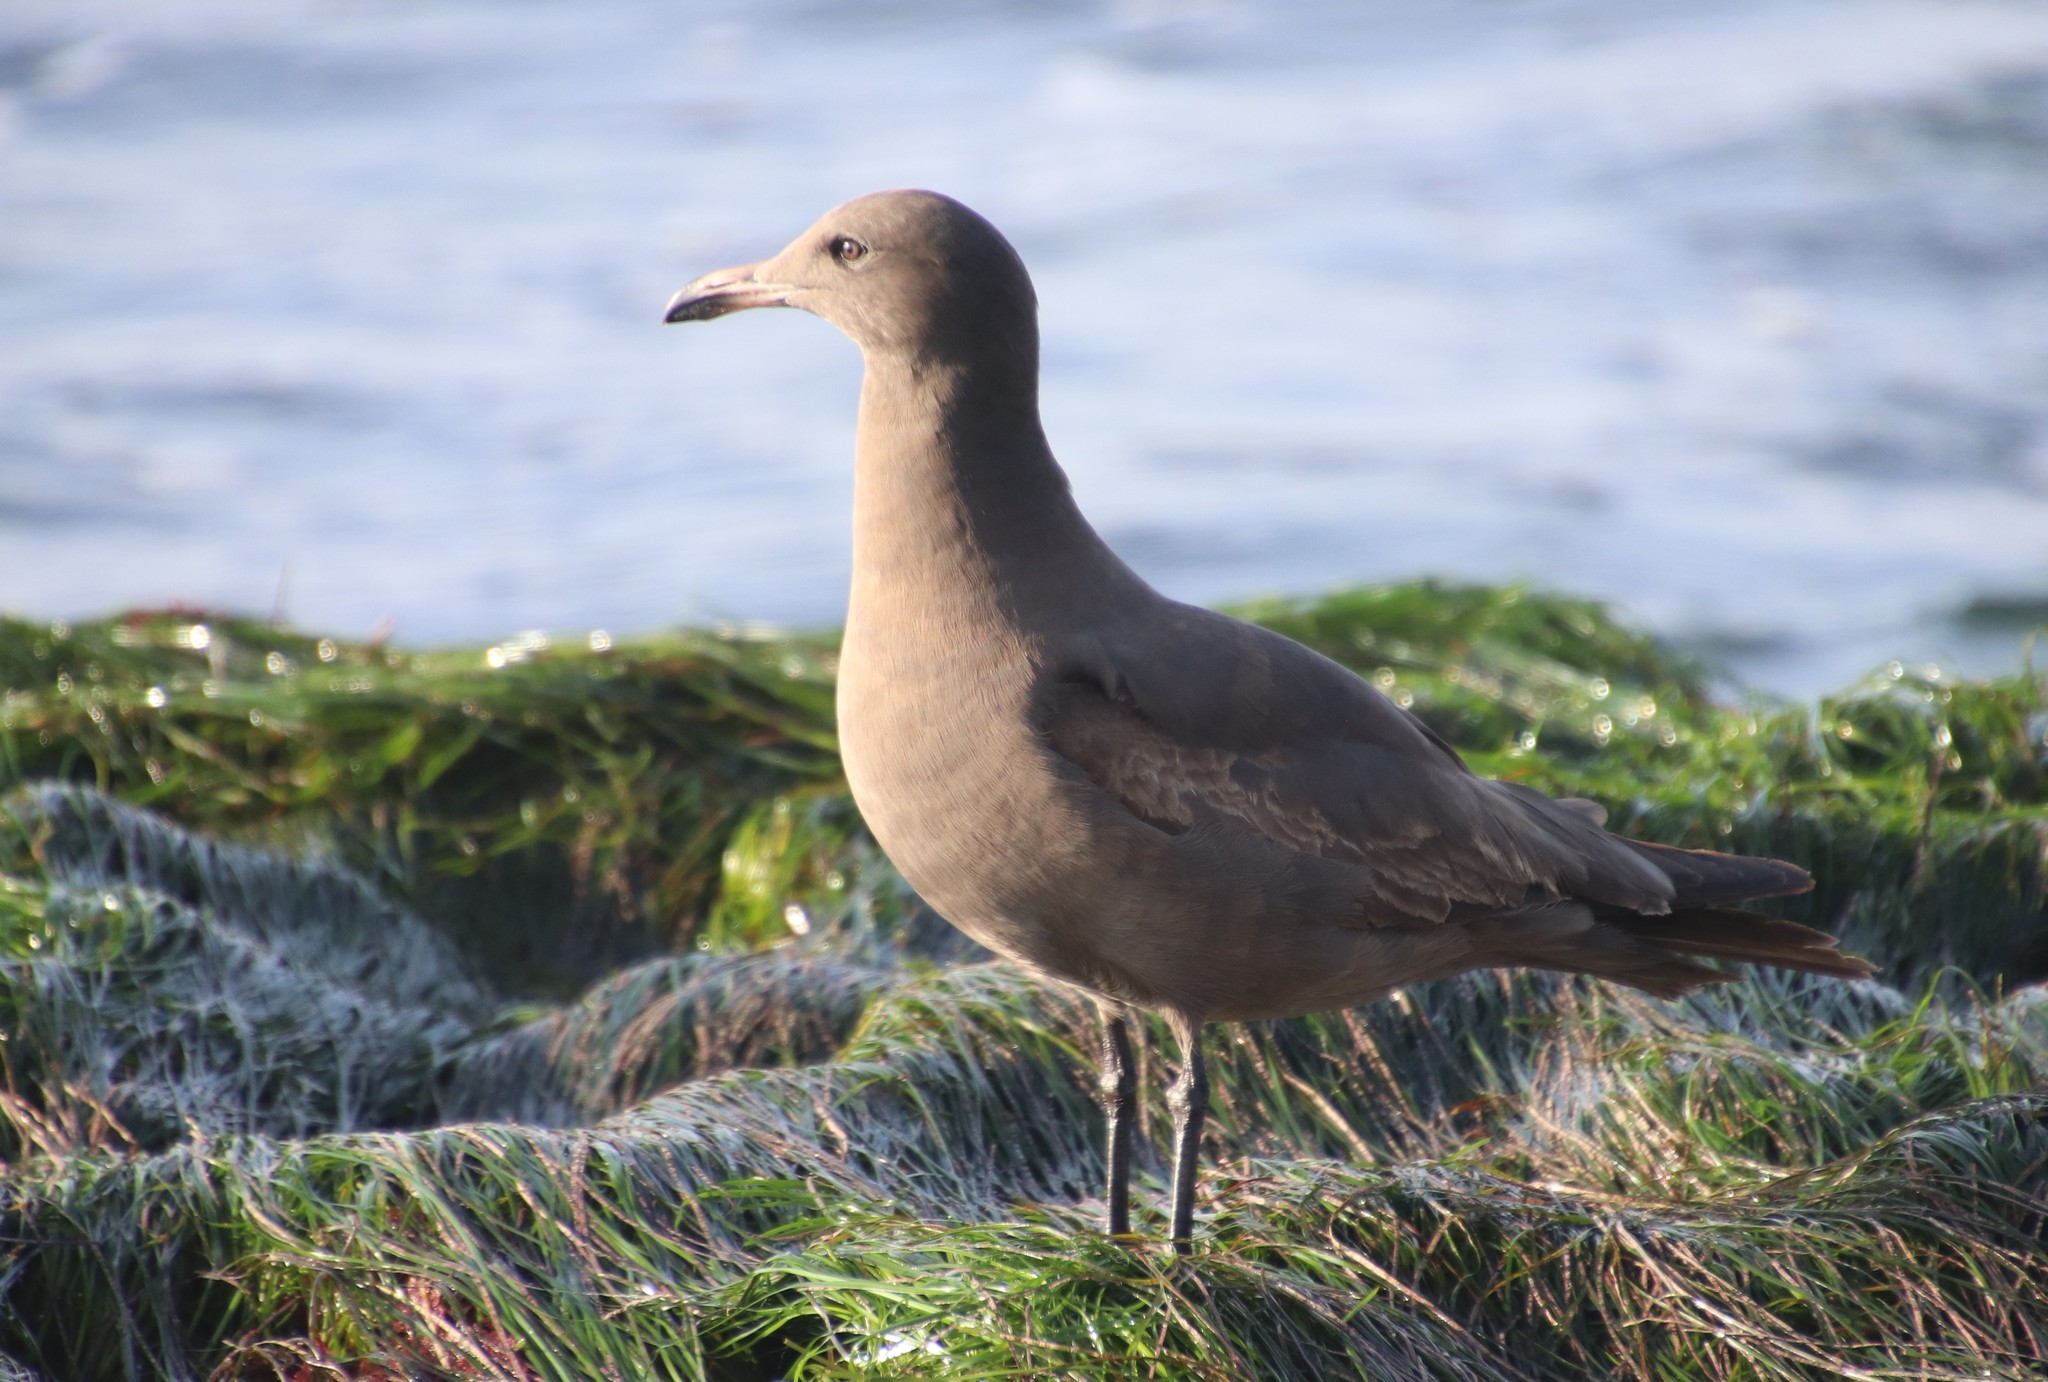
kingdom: Animalia
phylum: Chordata
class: Aves
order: Charadriiformes
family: Laridae
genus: Larus
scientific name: Larus heermanni
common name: Heermann's gull
